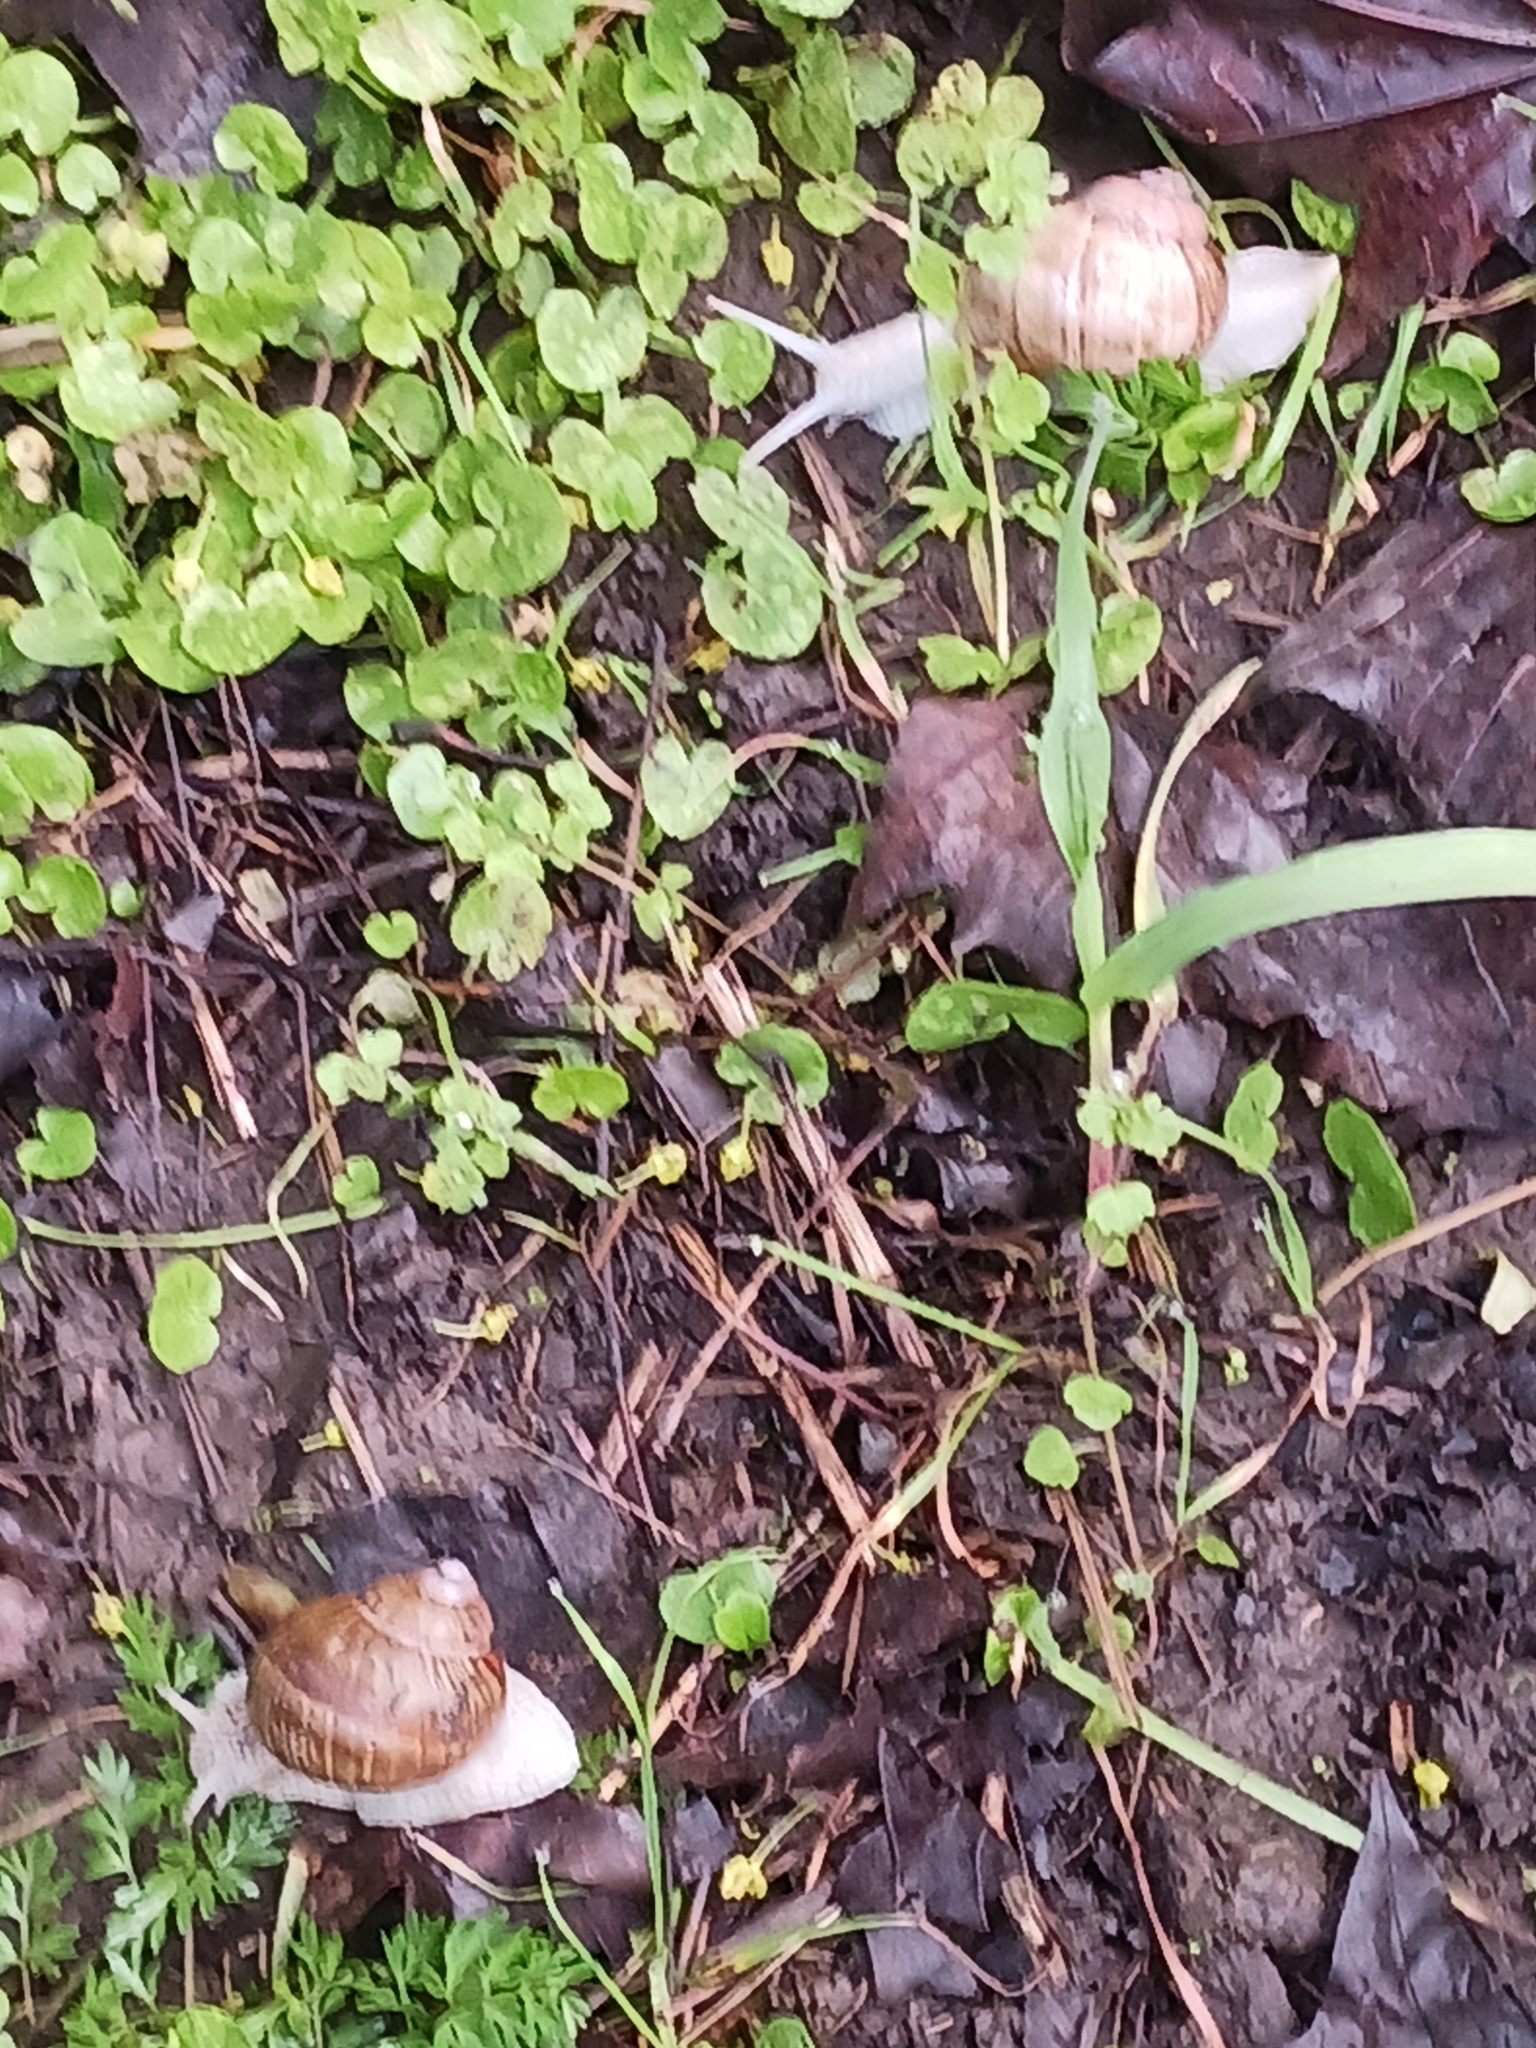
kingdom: Animalia
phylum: Mollusca
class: Gastropoda
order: Stylommatophora
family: Helicidae
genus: Helix
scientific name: Helix pomatia
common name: Roman snail
